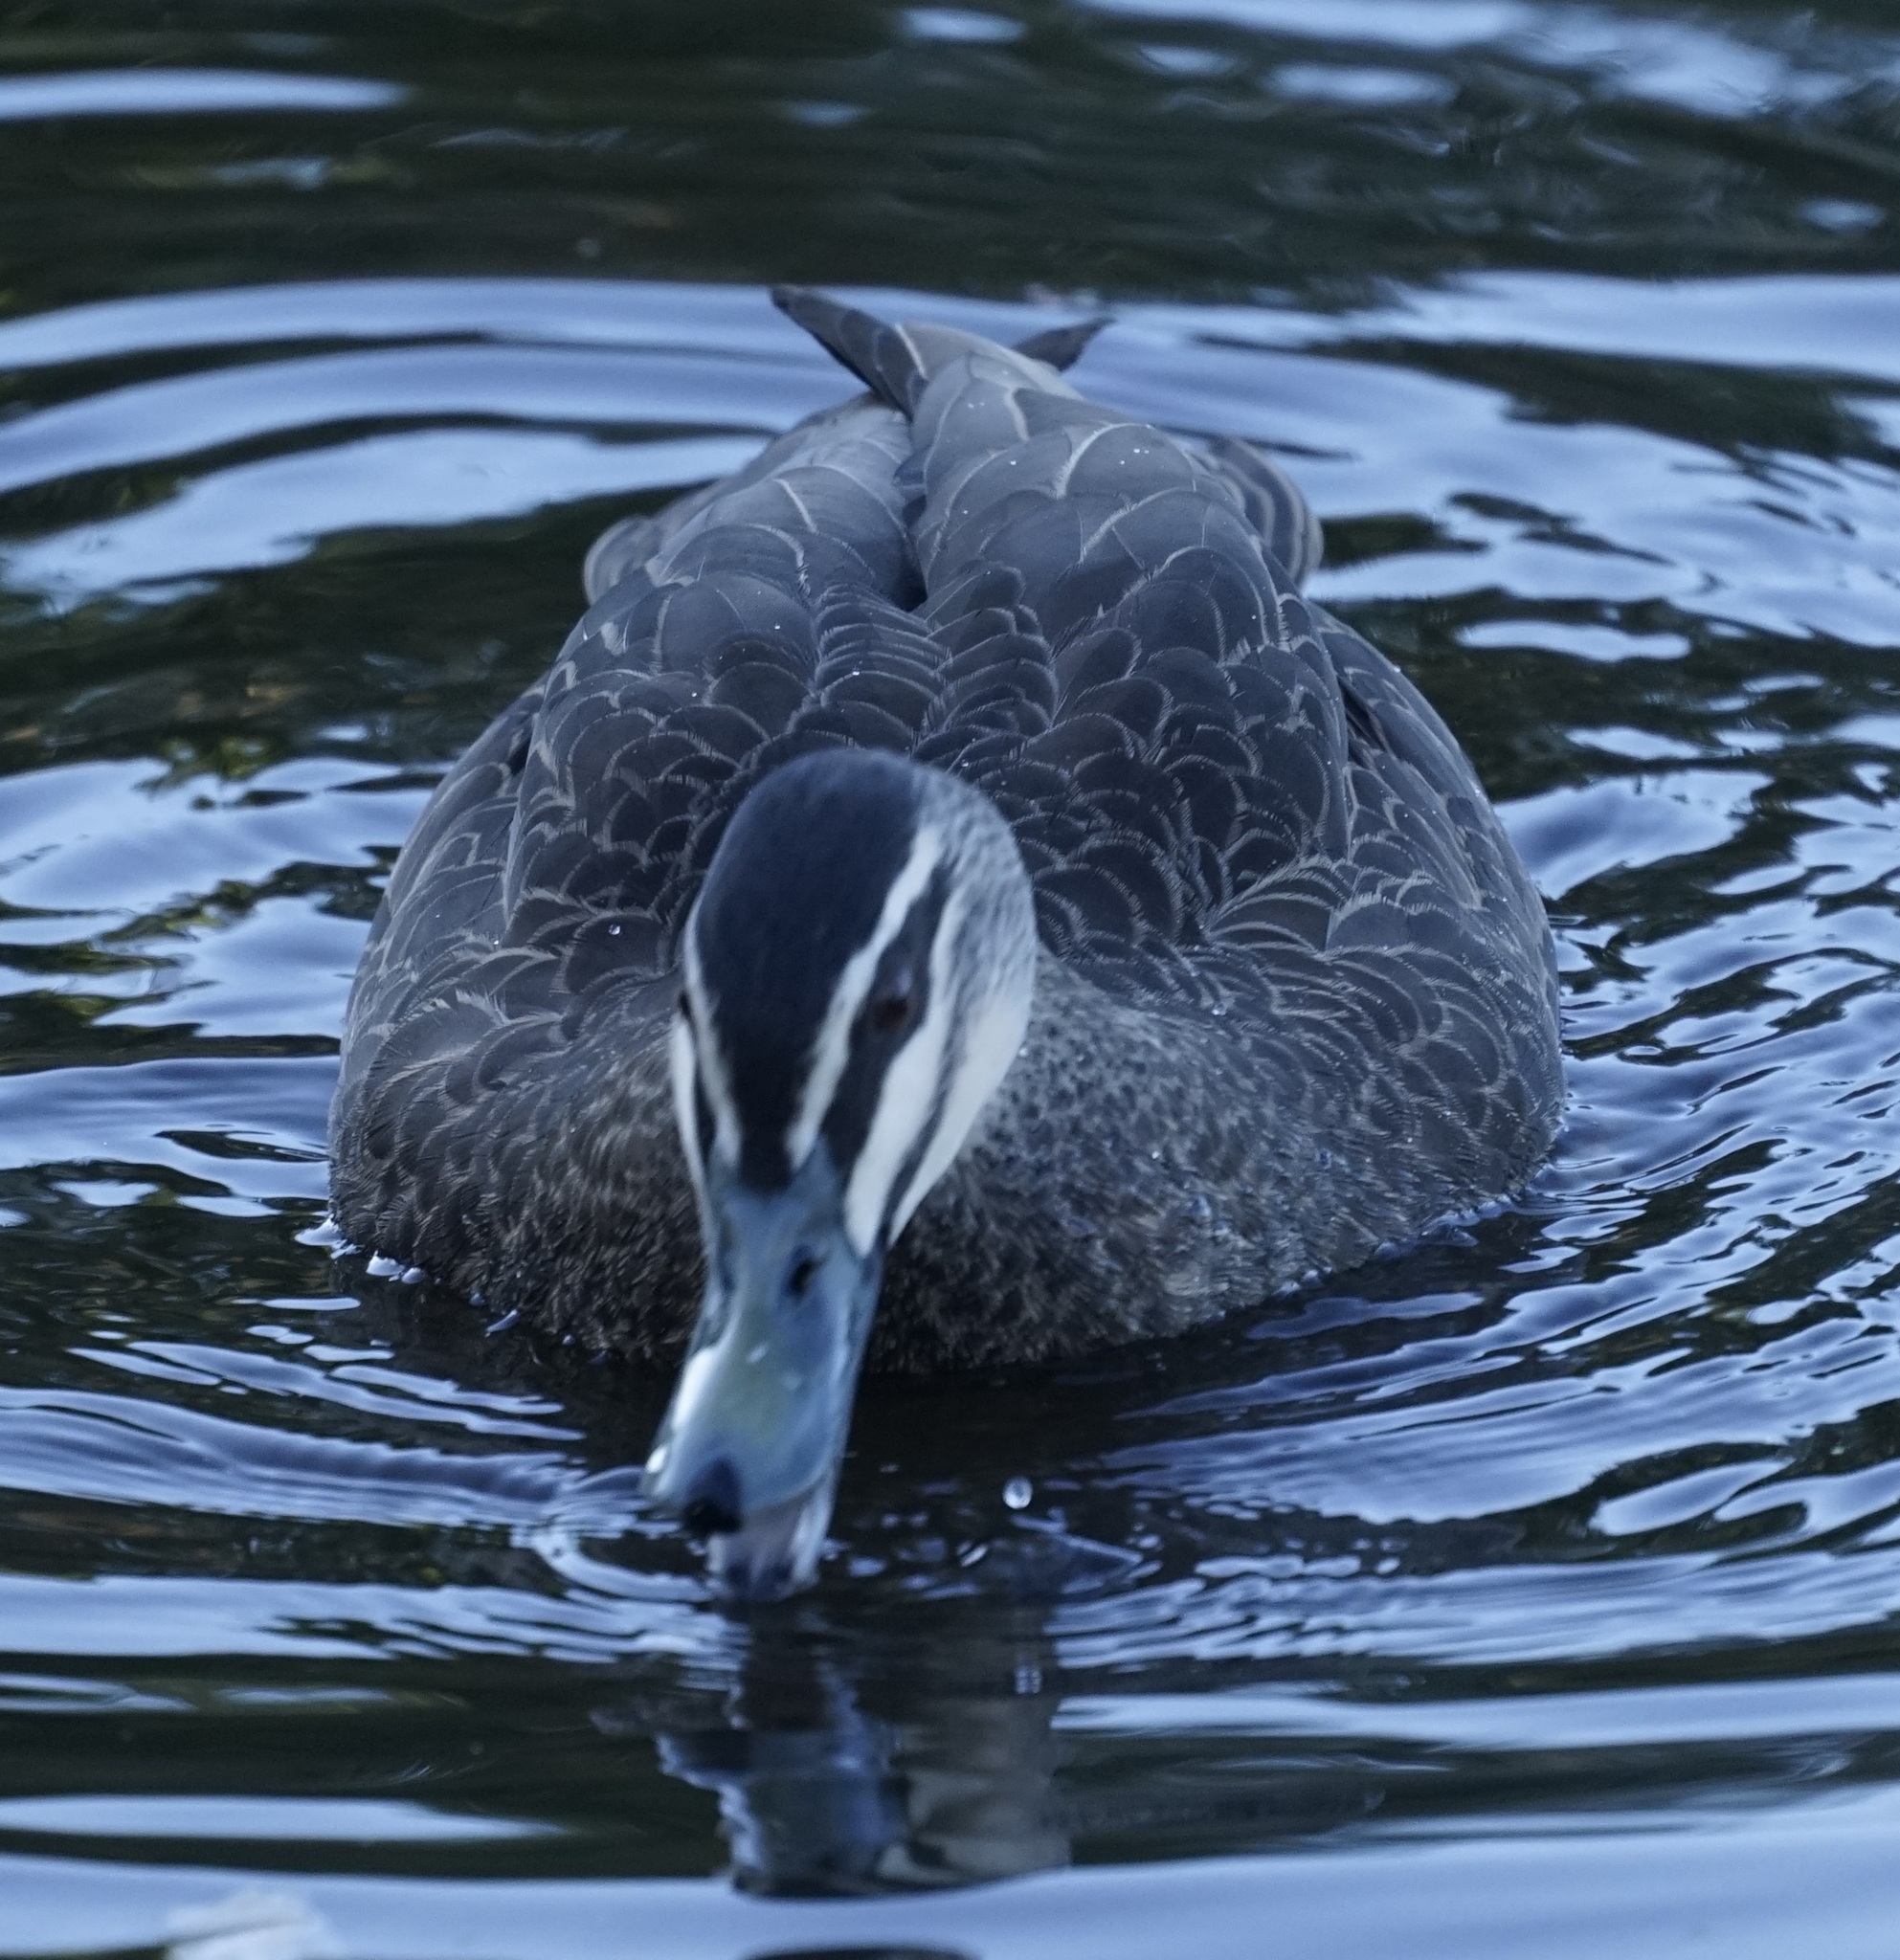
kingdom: Animalia
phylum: Chordata
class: Aves
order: Anseriformes
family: Anatidae
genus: Anas
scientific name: Anas superciliosa
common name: Pacific black duck
